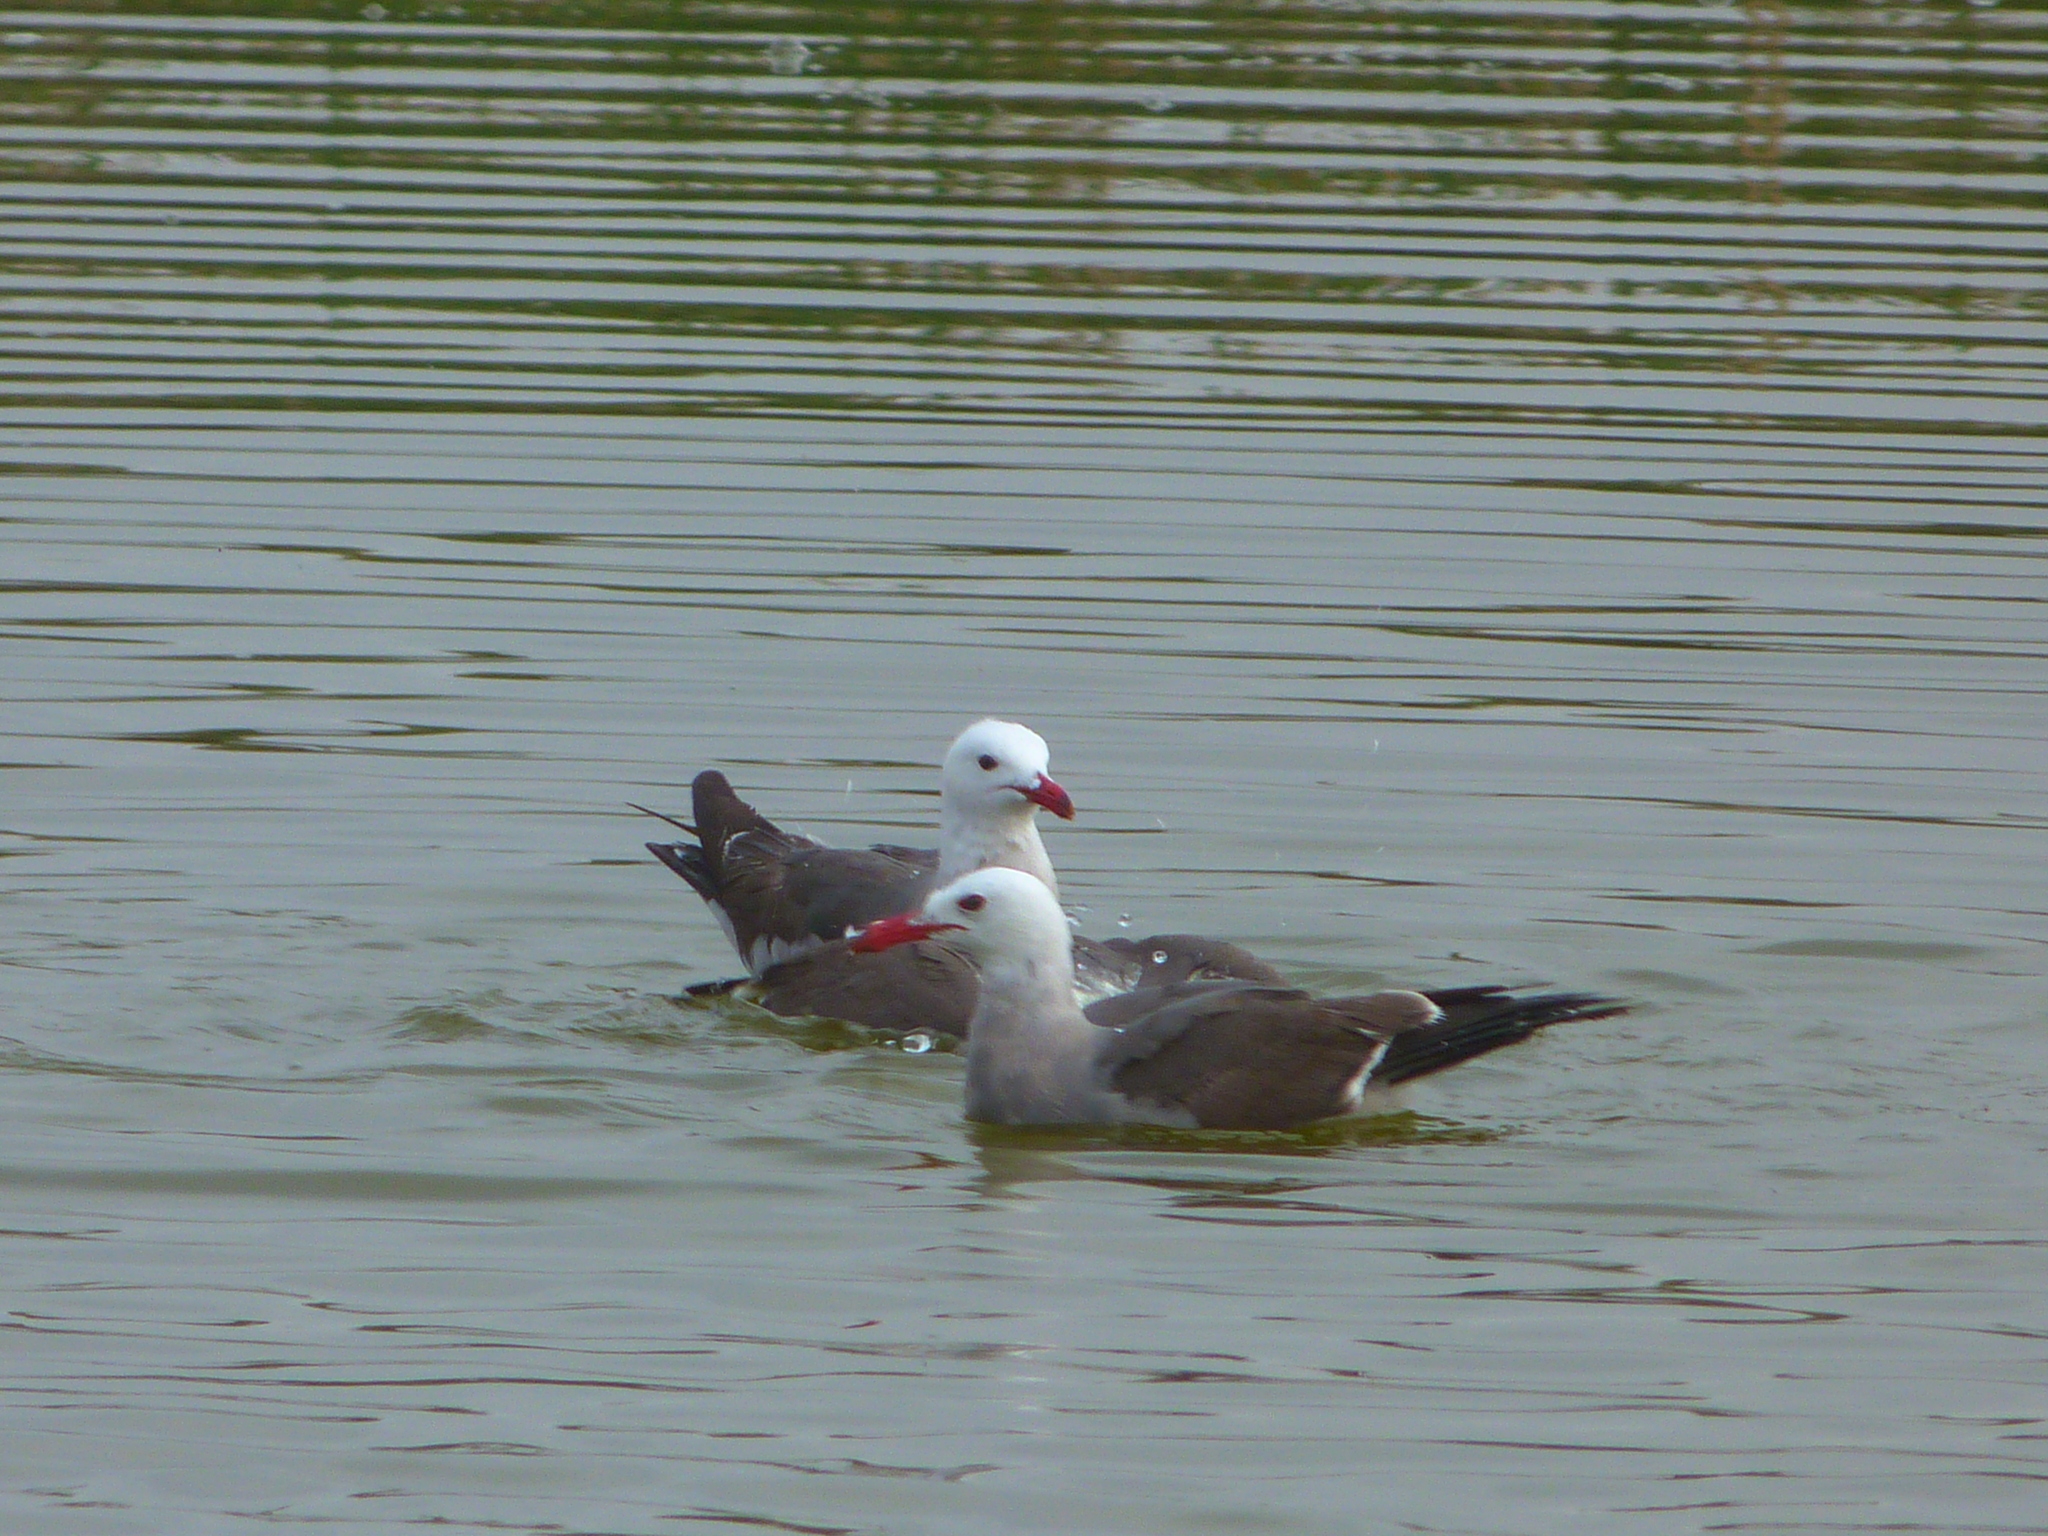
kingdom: Animalia
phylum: Chordata
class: Aves
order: Charadriiformes
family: Laridae
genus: Larus
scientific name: Larus heermanni
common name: Heermann's gull
